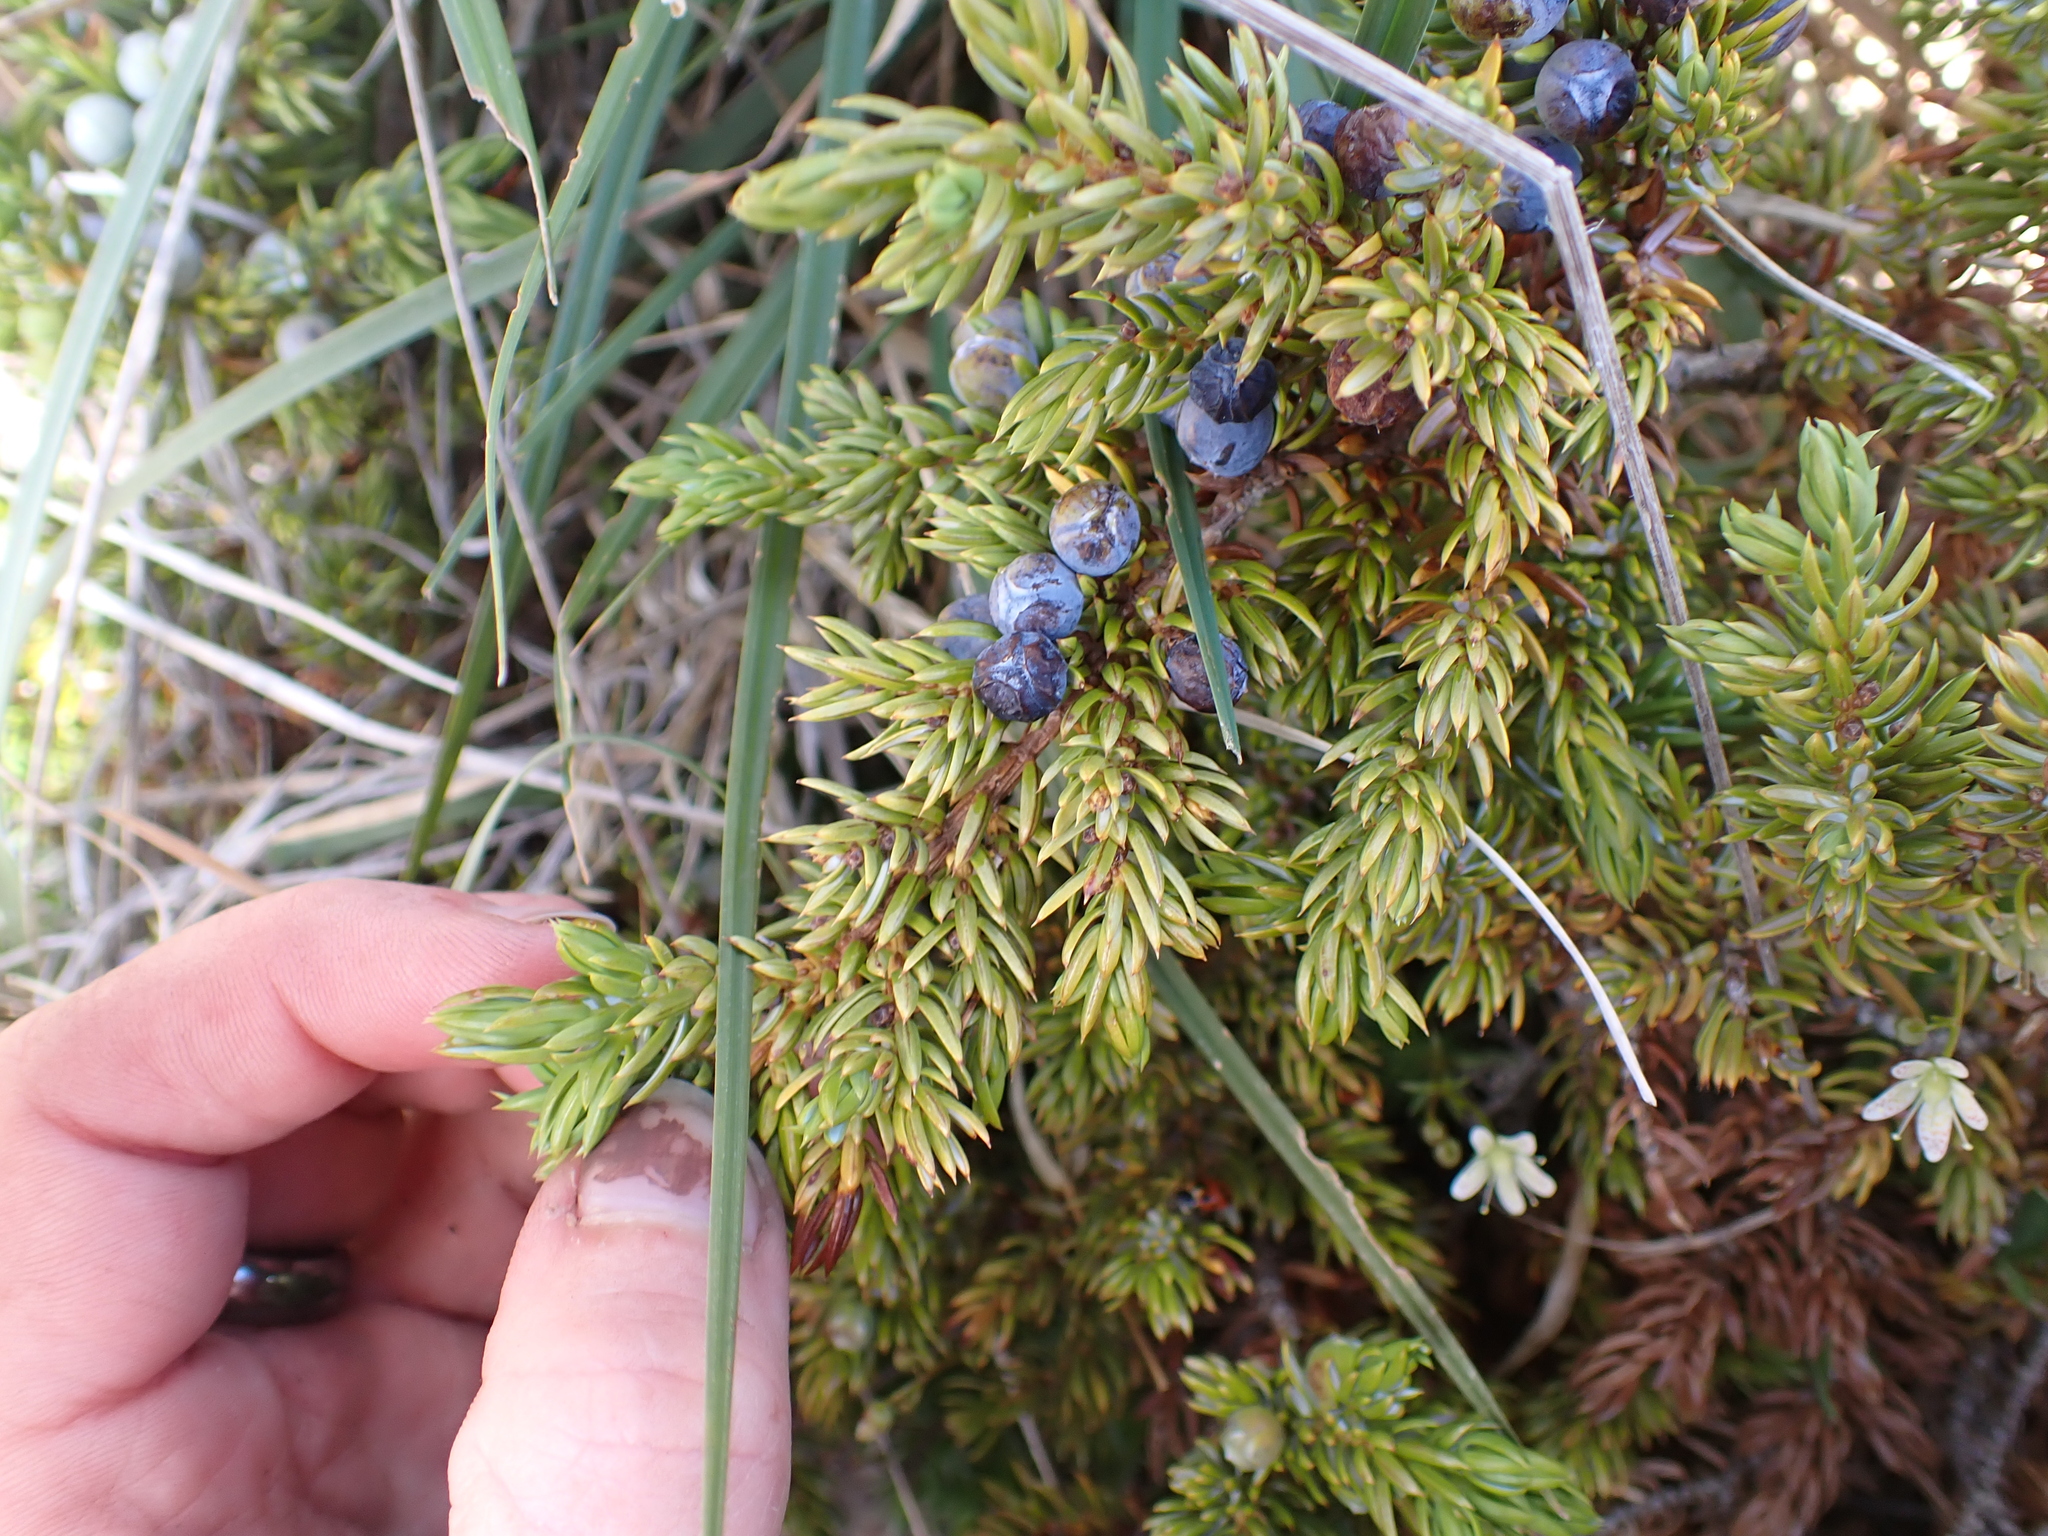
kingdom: Plantae
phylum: Tracheophyta
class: Pinopsida
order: Pinales
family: Cupressaceae
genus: Juniperus
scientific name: Juniperus communis
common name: Common juniper
